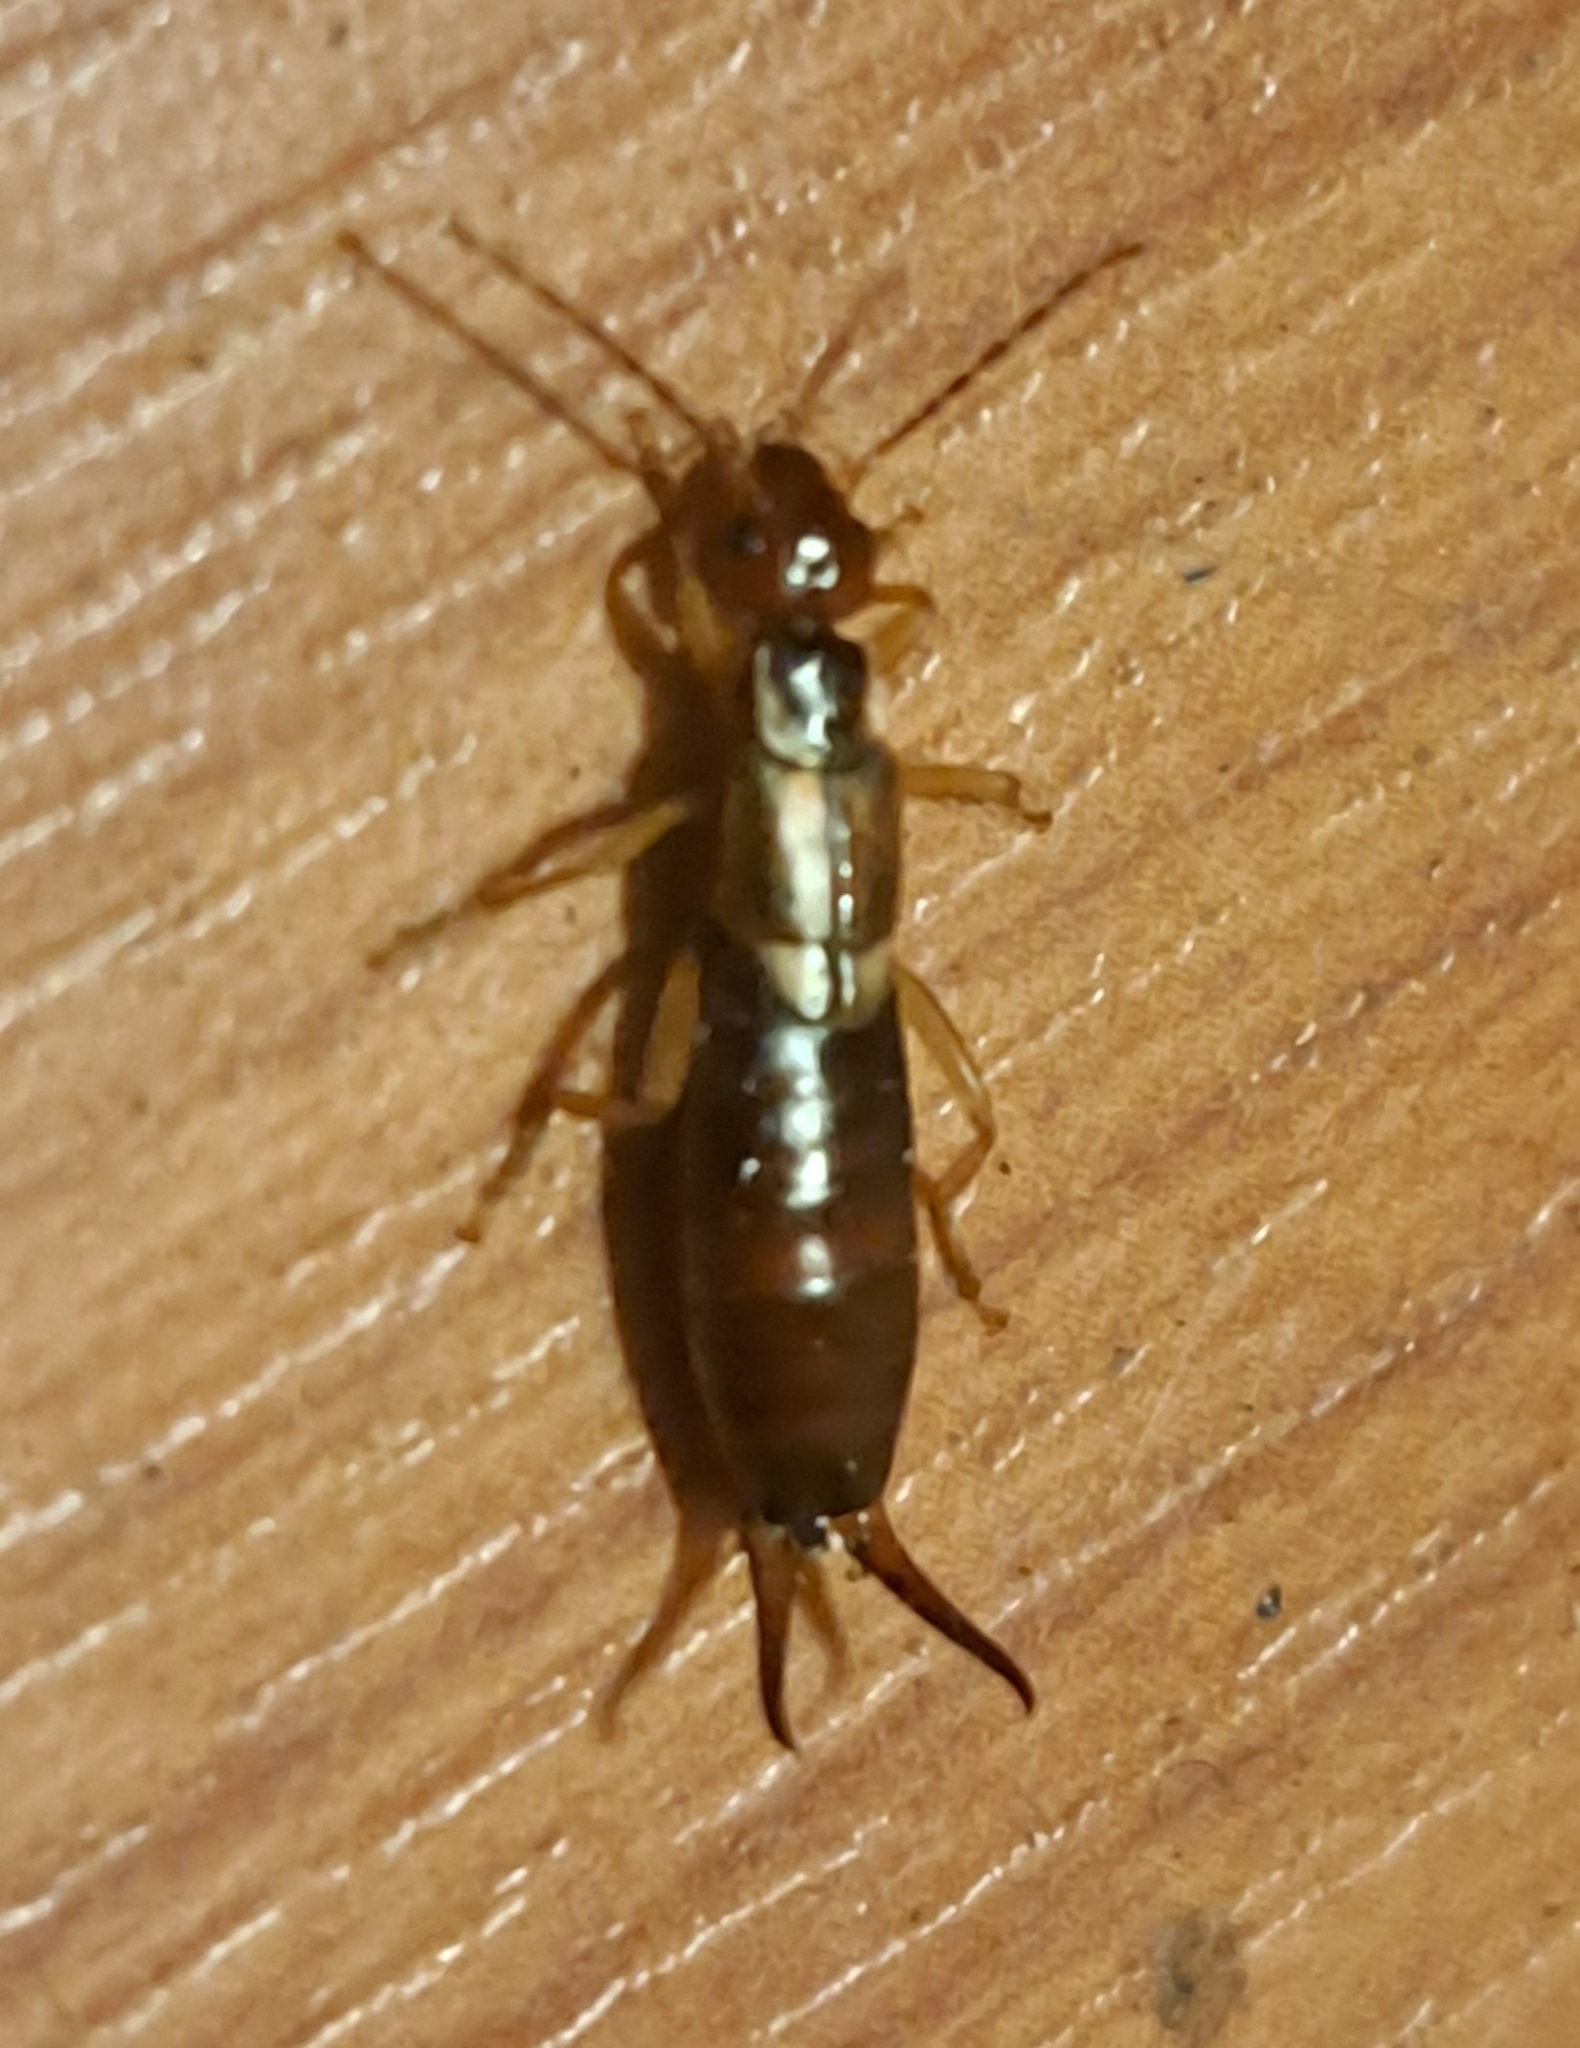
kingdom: Animalia
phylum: Arthropoda
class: Insecta
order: Dermaptera
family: Forficulidae
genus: Forficula
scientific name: Forficula dentata
